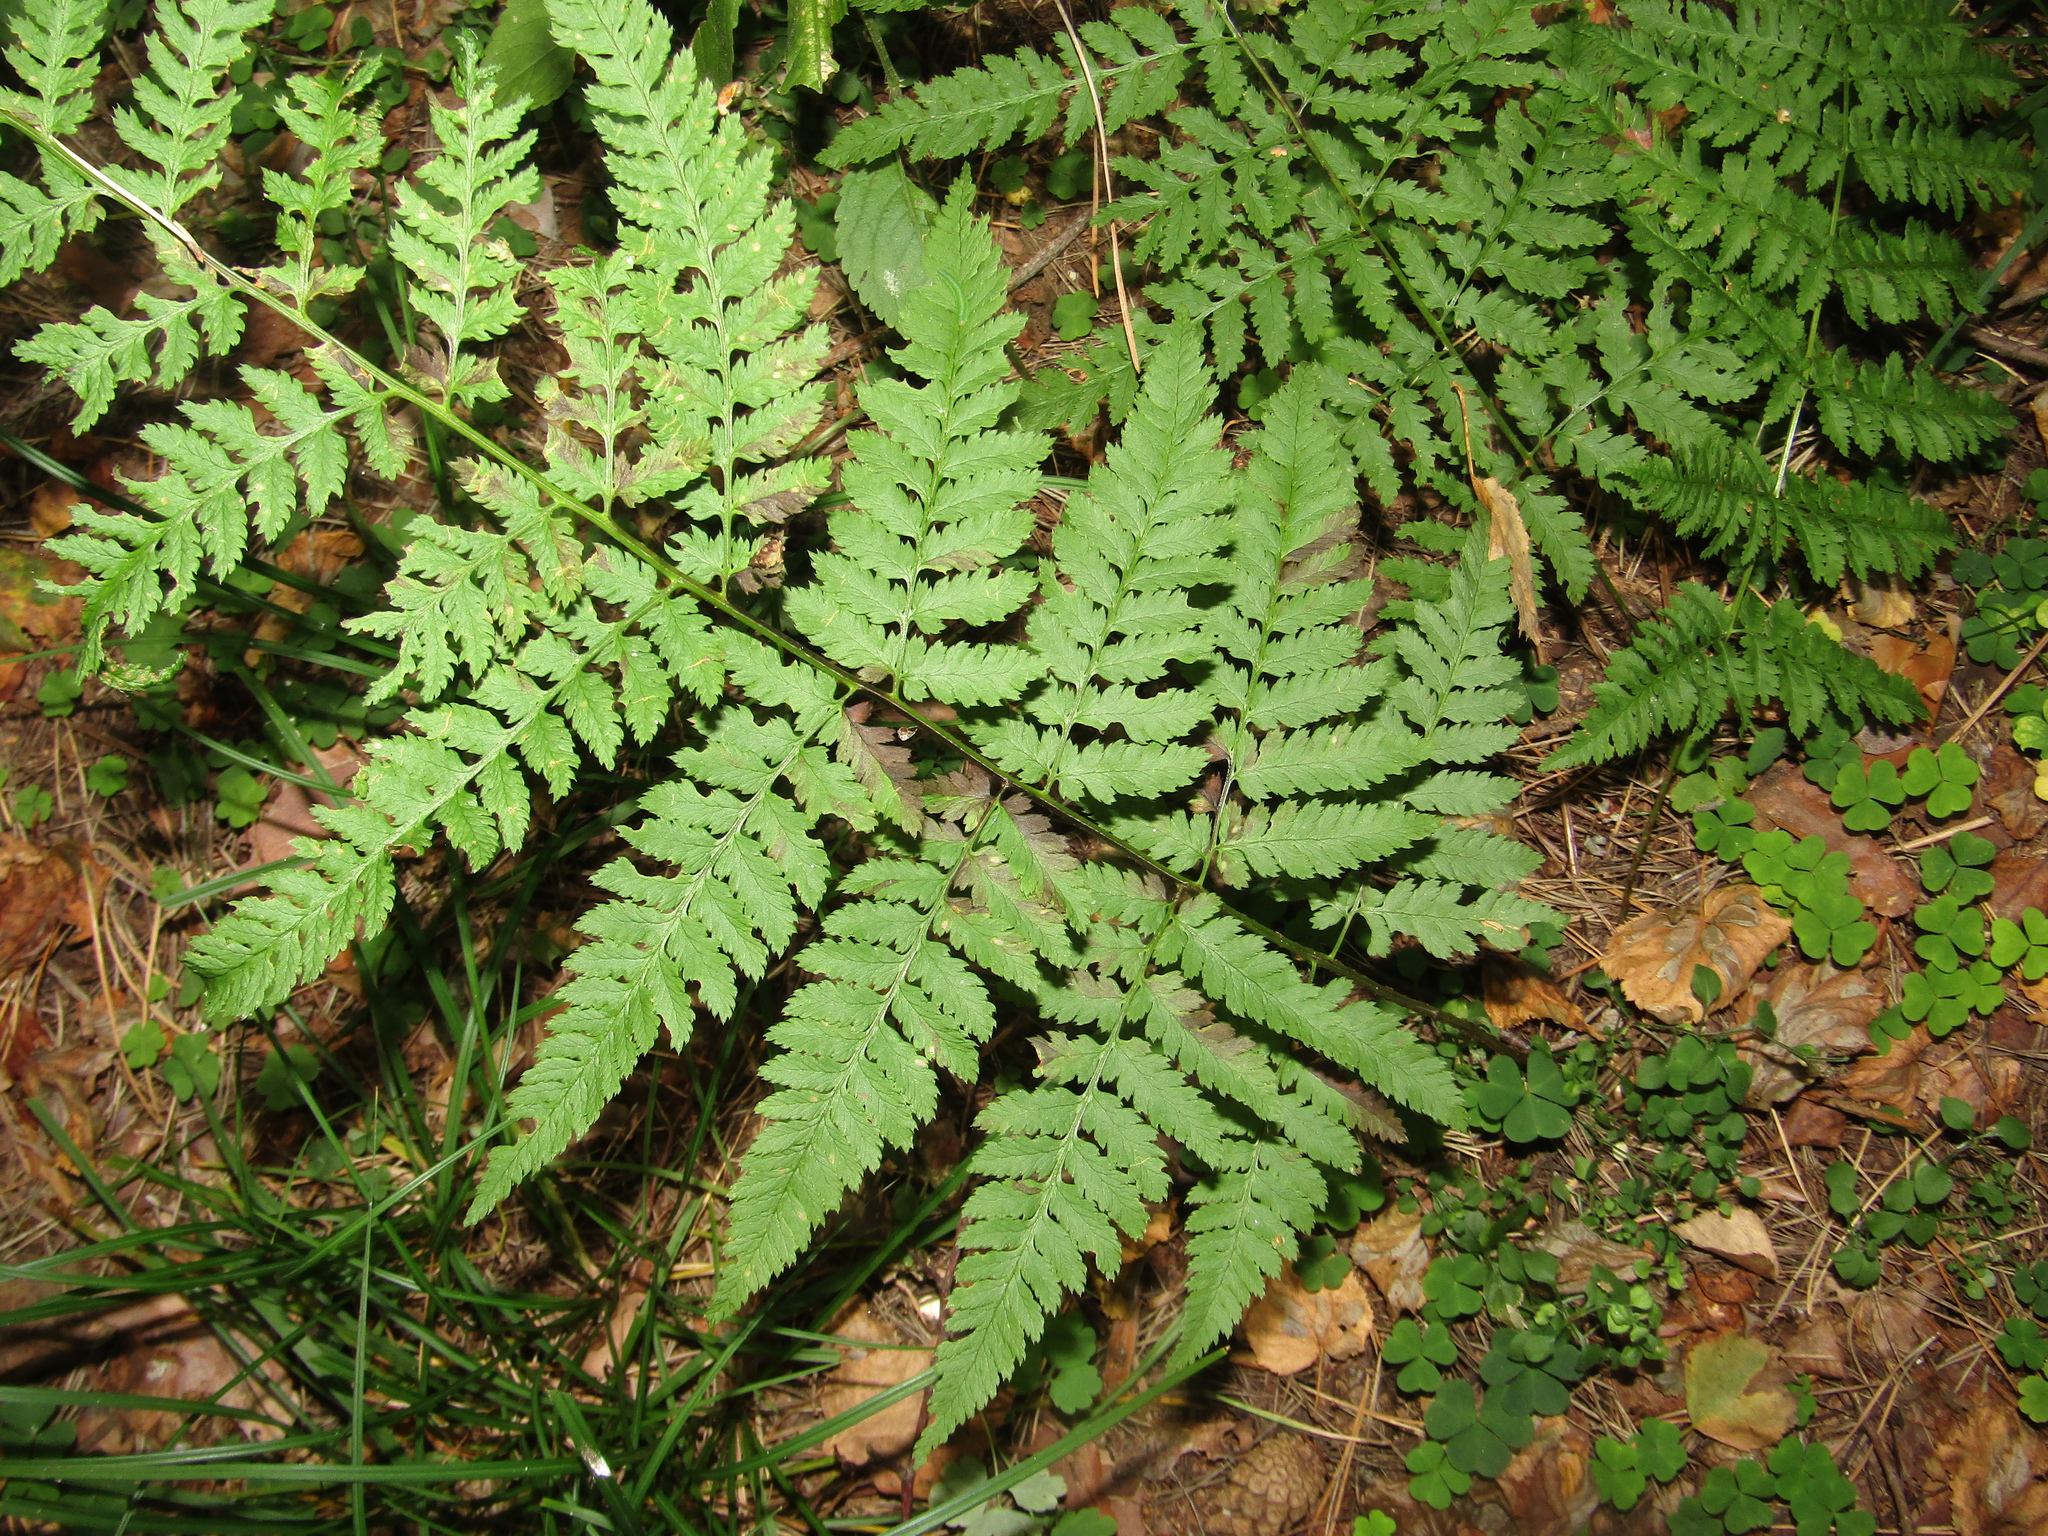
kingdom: Plantae
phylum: Tracheophyta
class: Polypodiopsida
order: Polypodiales
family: Dryopteridaceae
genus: Dryopteris
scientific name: Dryopteris carthusiana
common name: Narrow buckler-fern
